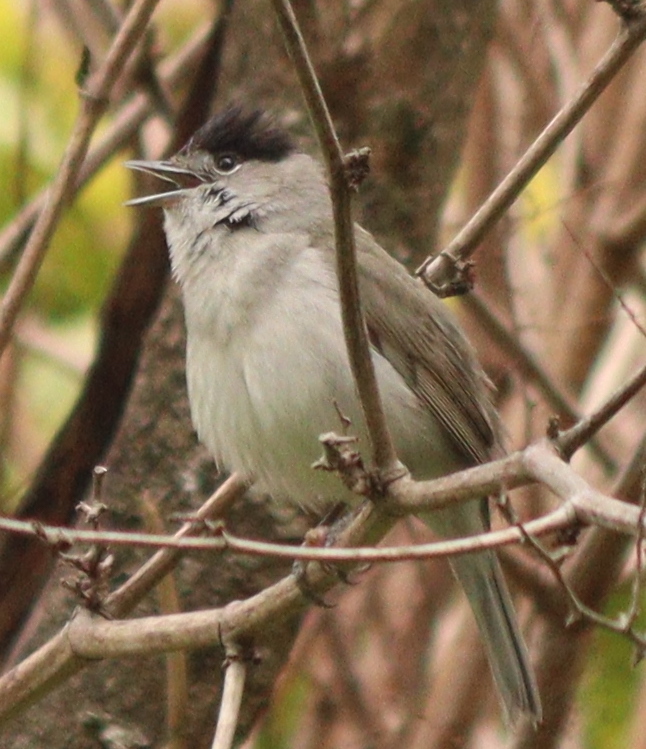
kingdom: Animalia
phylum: Chordata
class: Aves
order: Passeriformes
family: Sylviidae
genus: Sylvia
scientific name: Sylvia atricapilla
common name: Eurasian blackcap
